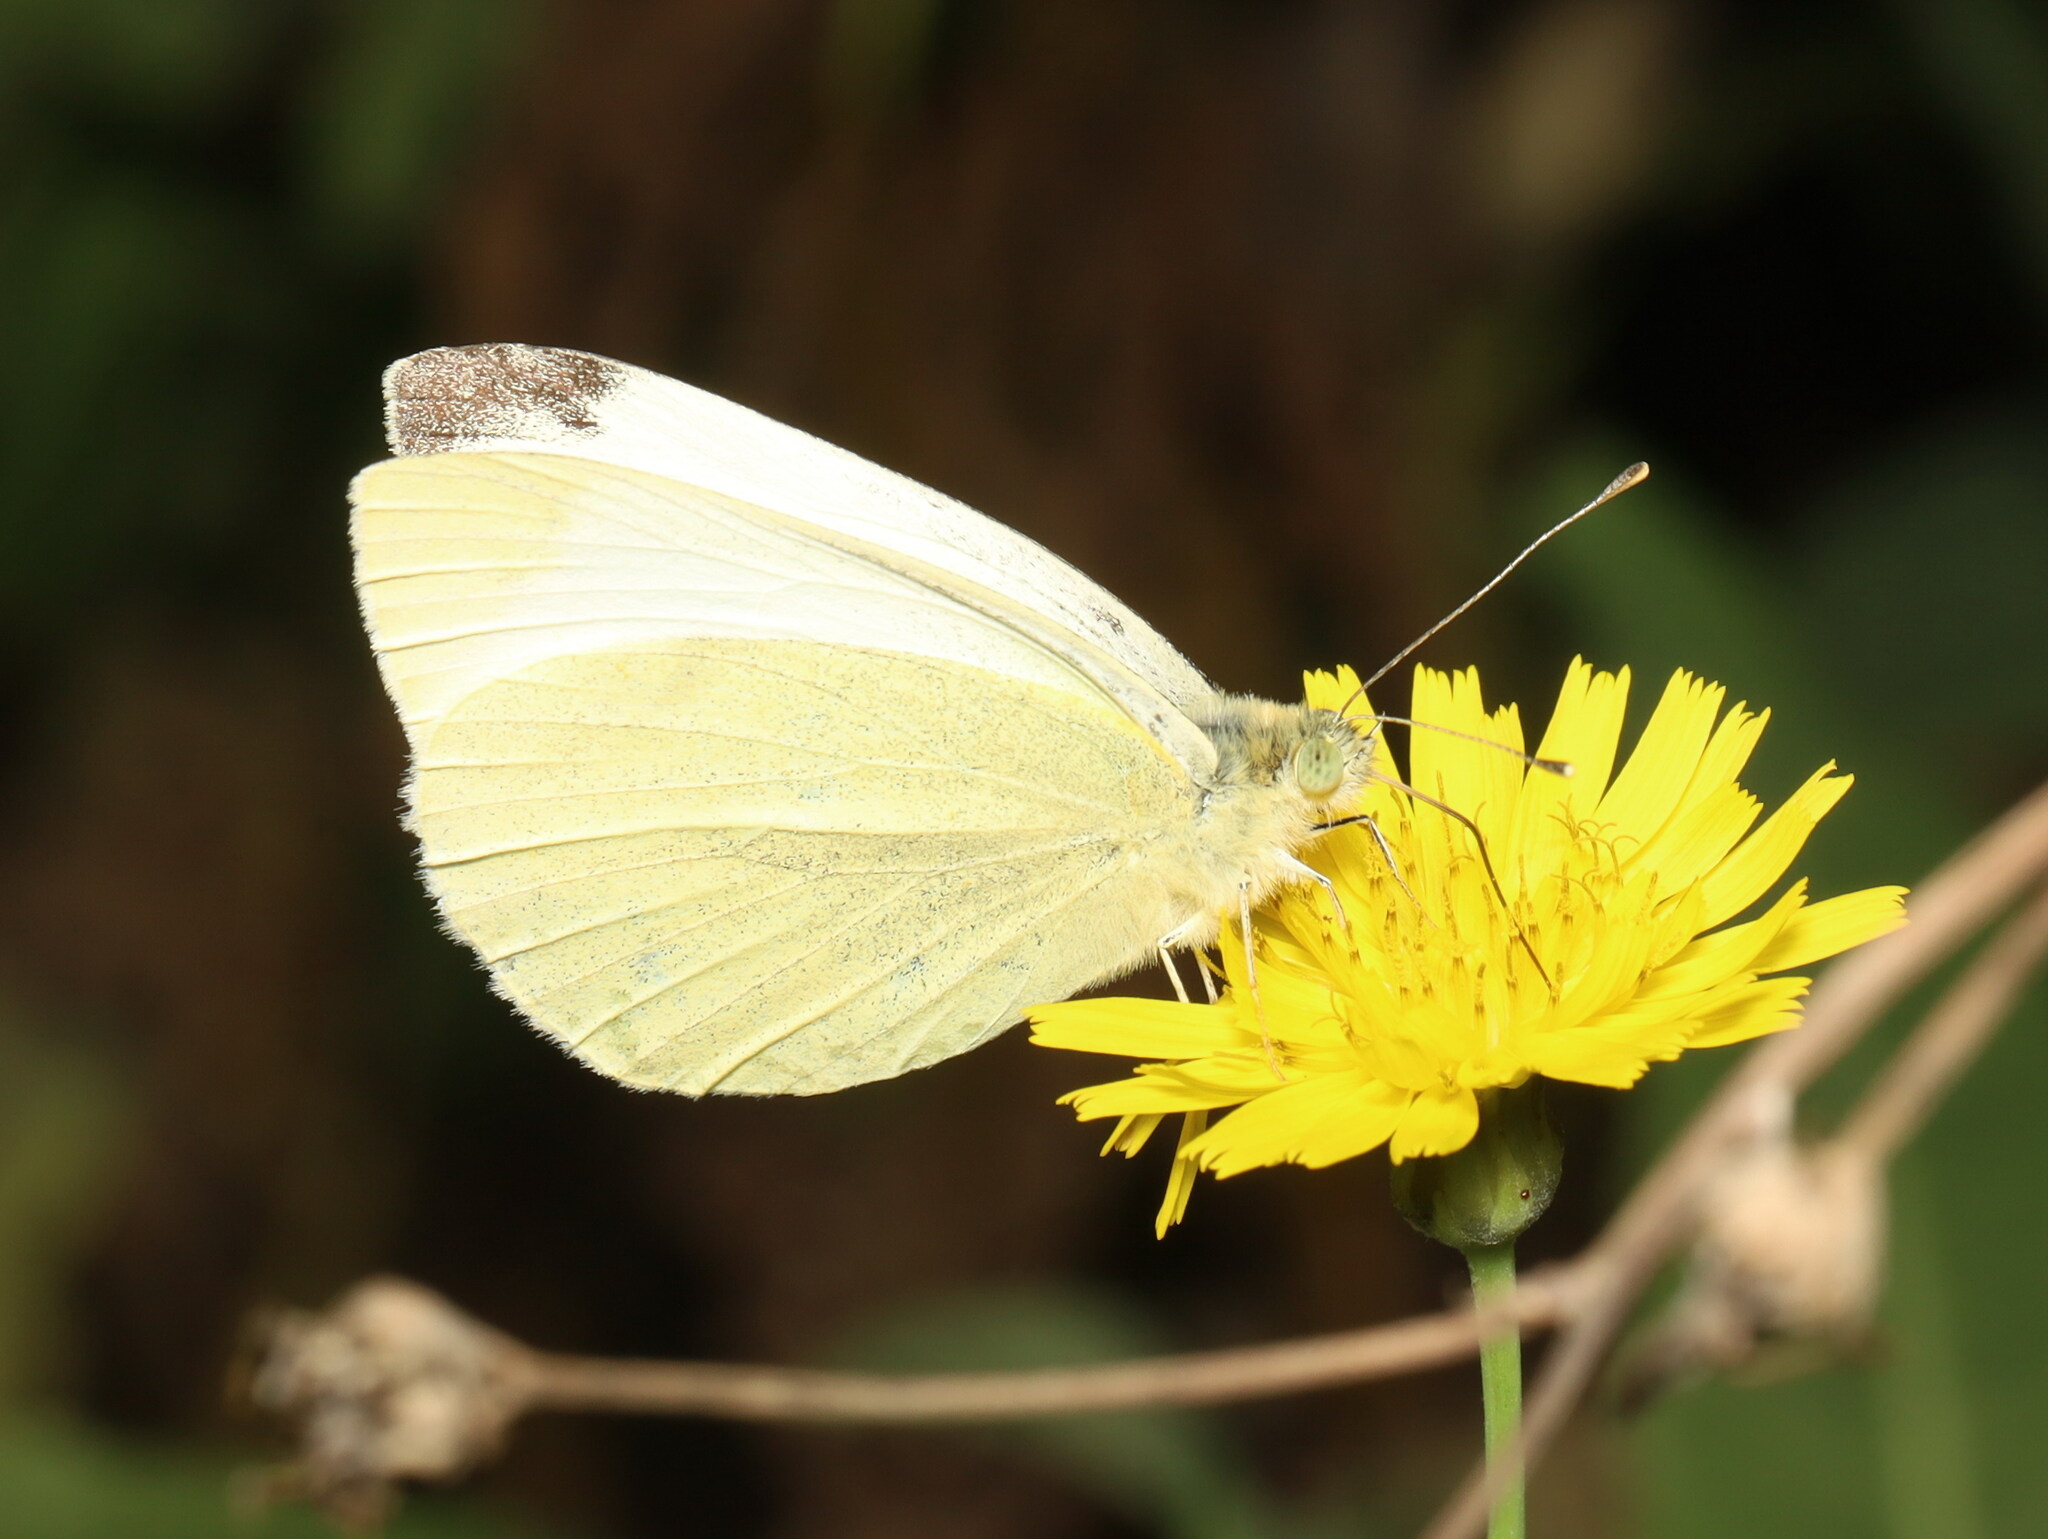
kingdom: Animalia
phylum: Arthropoda
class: Insecta
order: Lepidoptera
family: Pieridae
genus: Pieris
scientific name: Pieris rapae
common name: Small white
